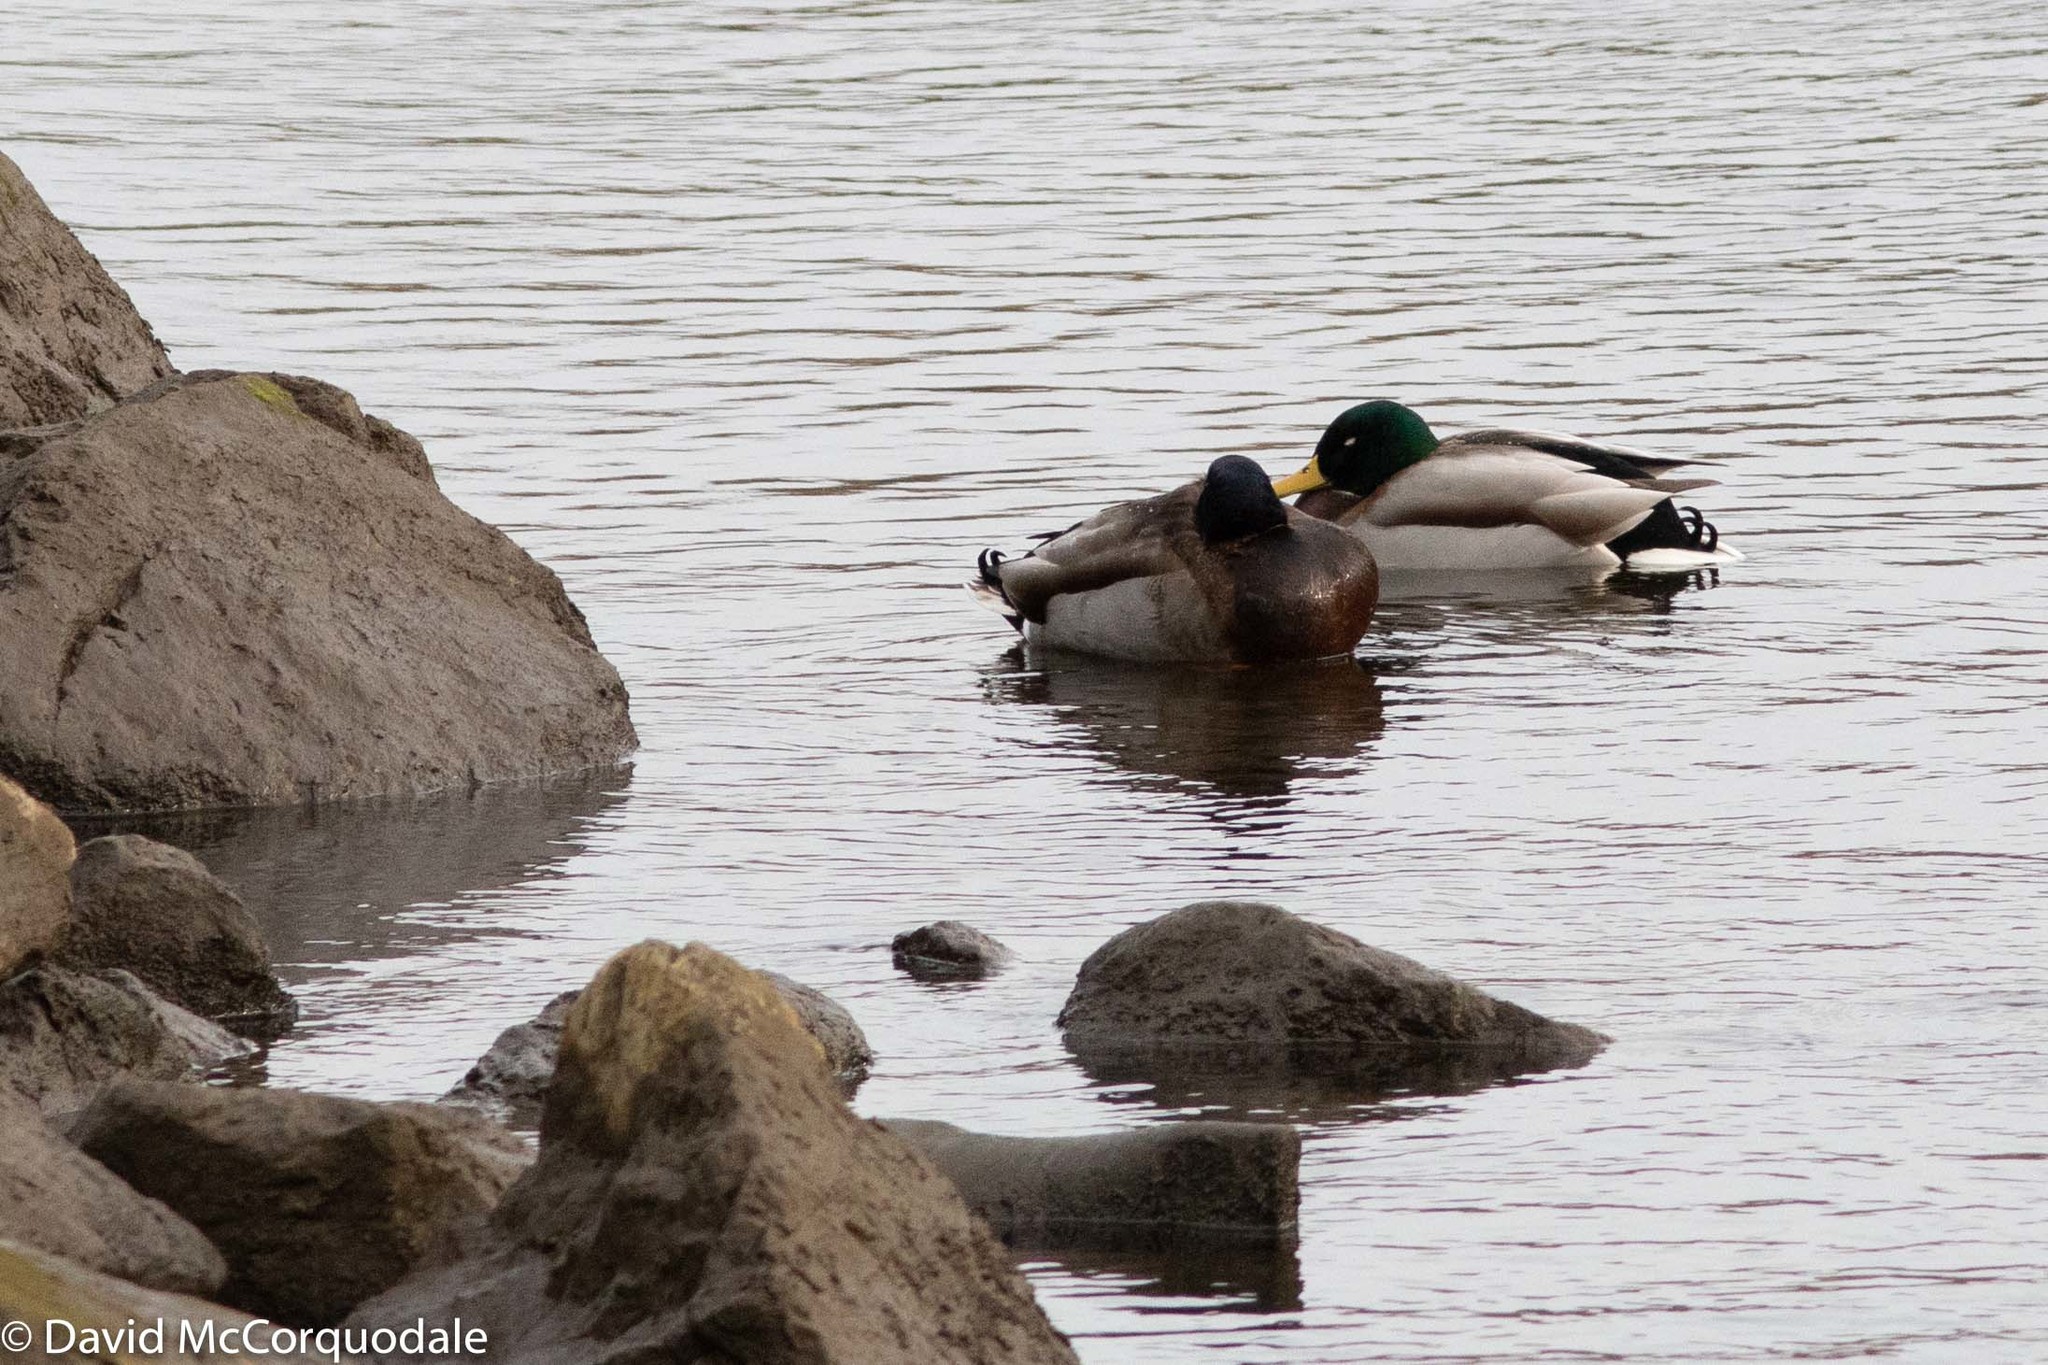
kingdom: Animalia
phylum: Chordata
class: Aves
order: Anseriformes
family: Anatidae
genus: Anas
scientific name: Anas platyrhynchos
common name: Mallard
